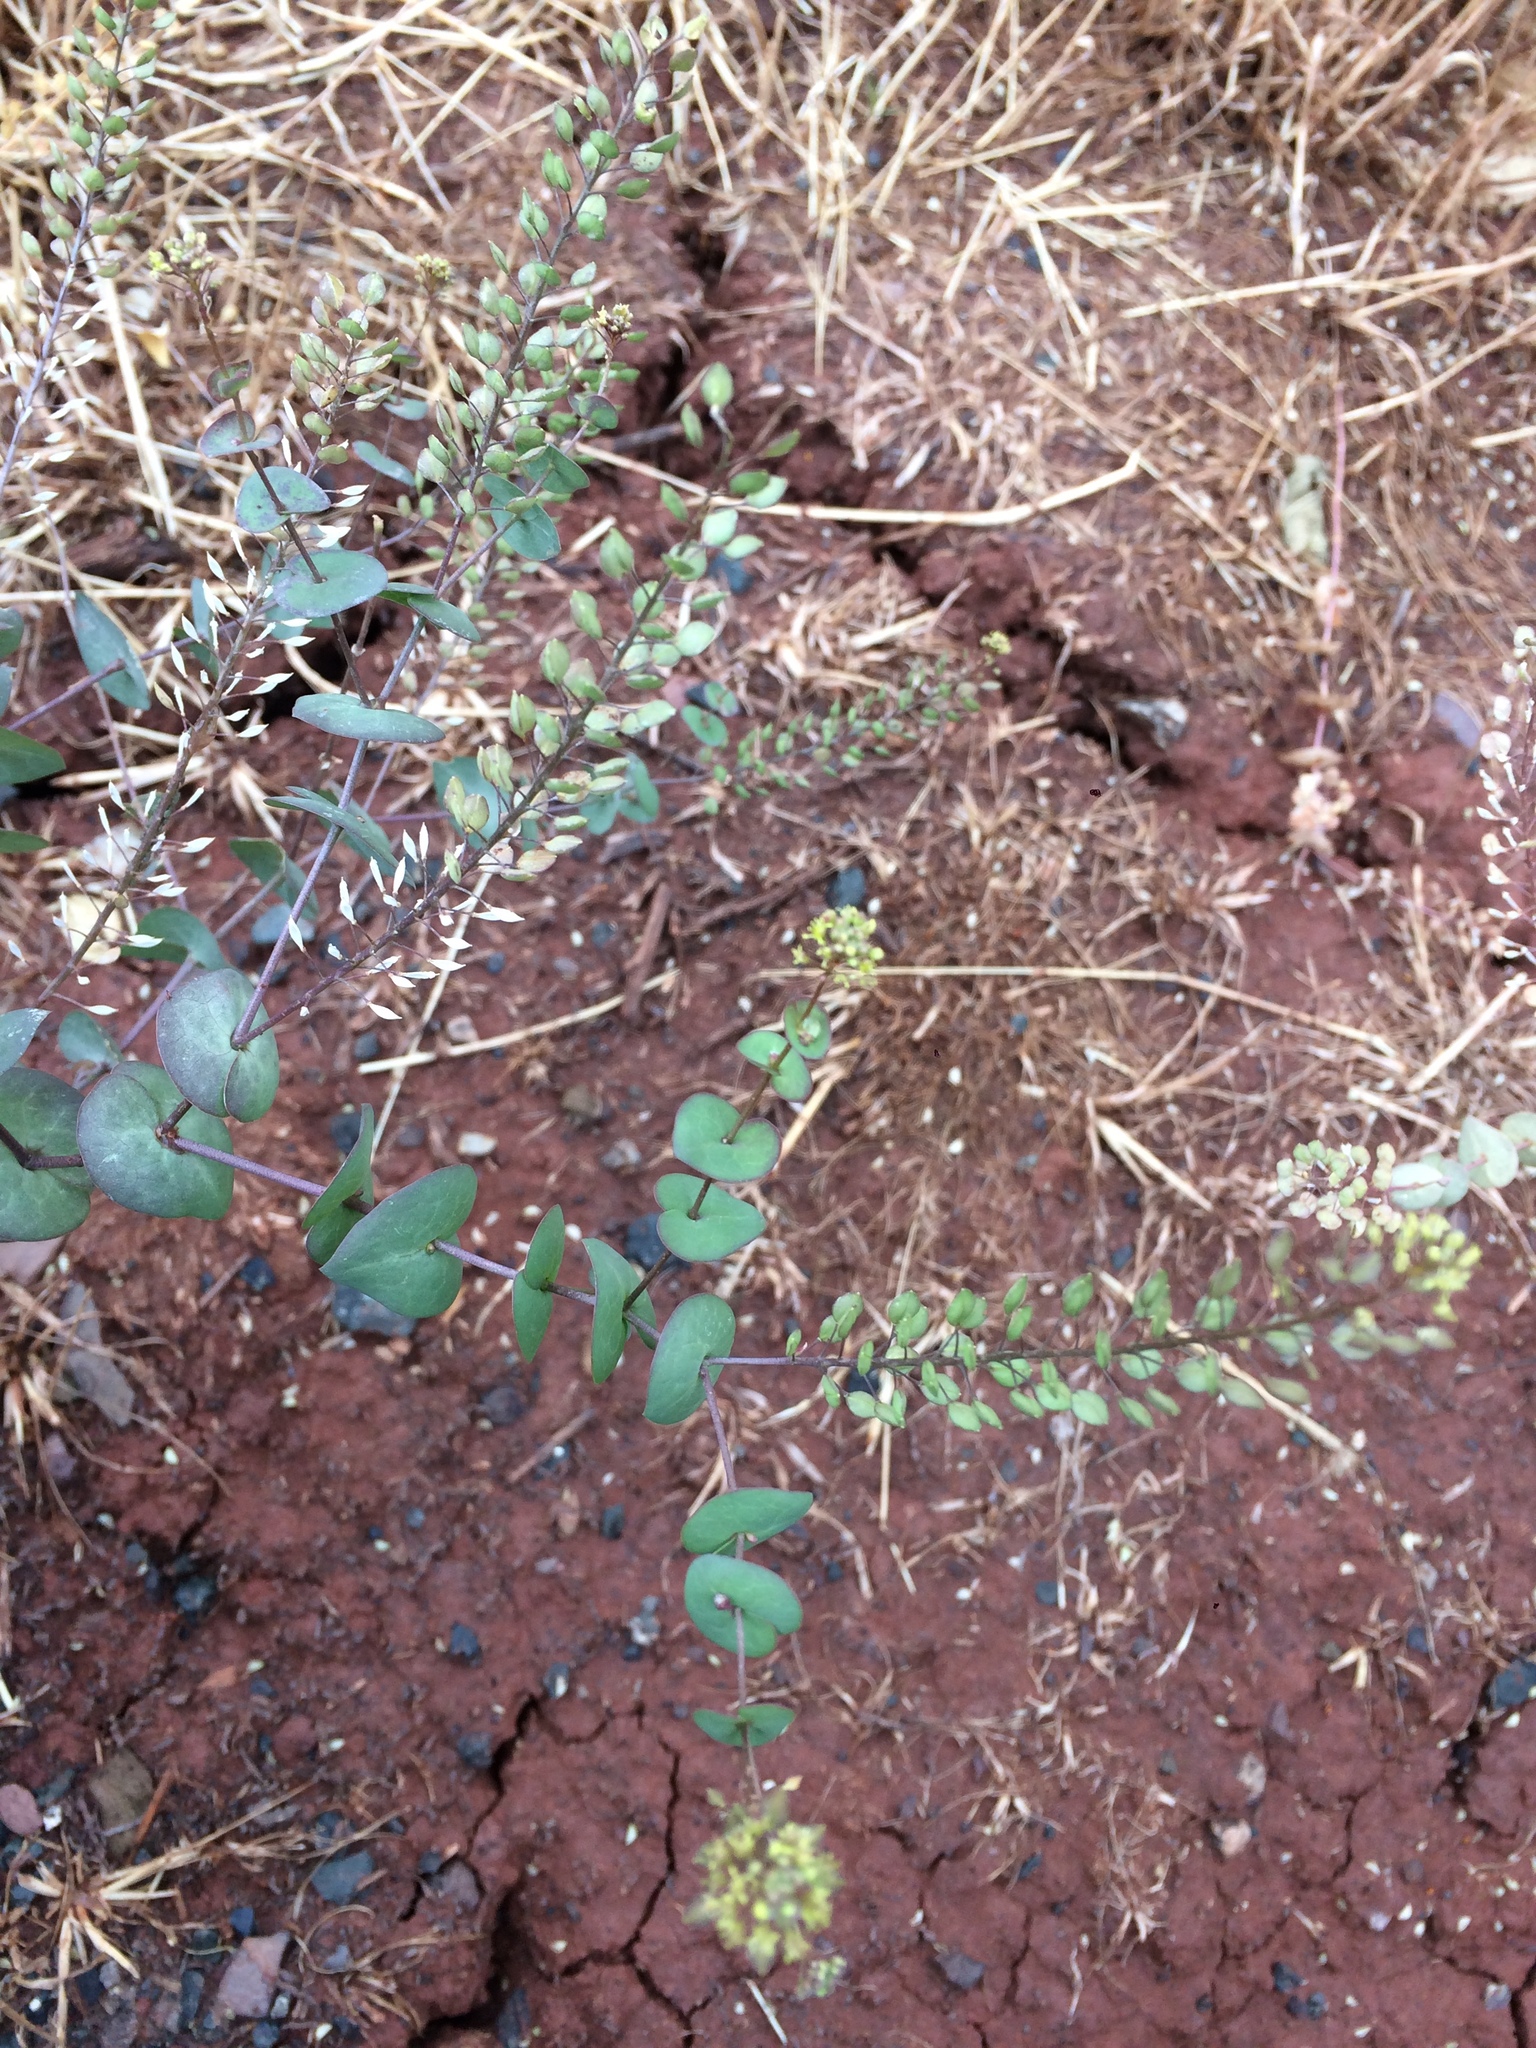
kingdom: Plantae
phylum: Tracheophyta
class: Magnoliopsida
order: Brassicales
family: Brassicaceae
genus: Lepidium
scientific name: Lepidium perfoliatum
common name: Perfoliate pepperwort
